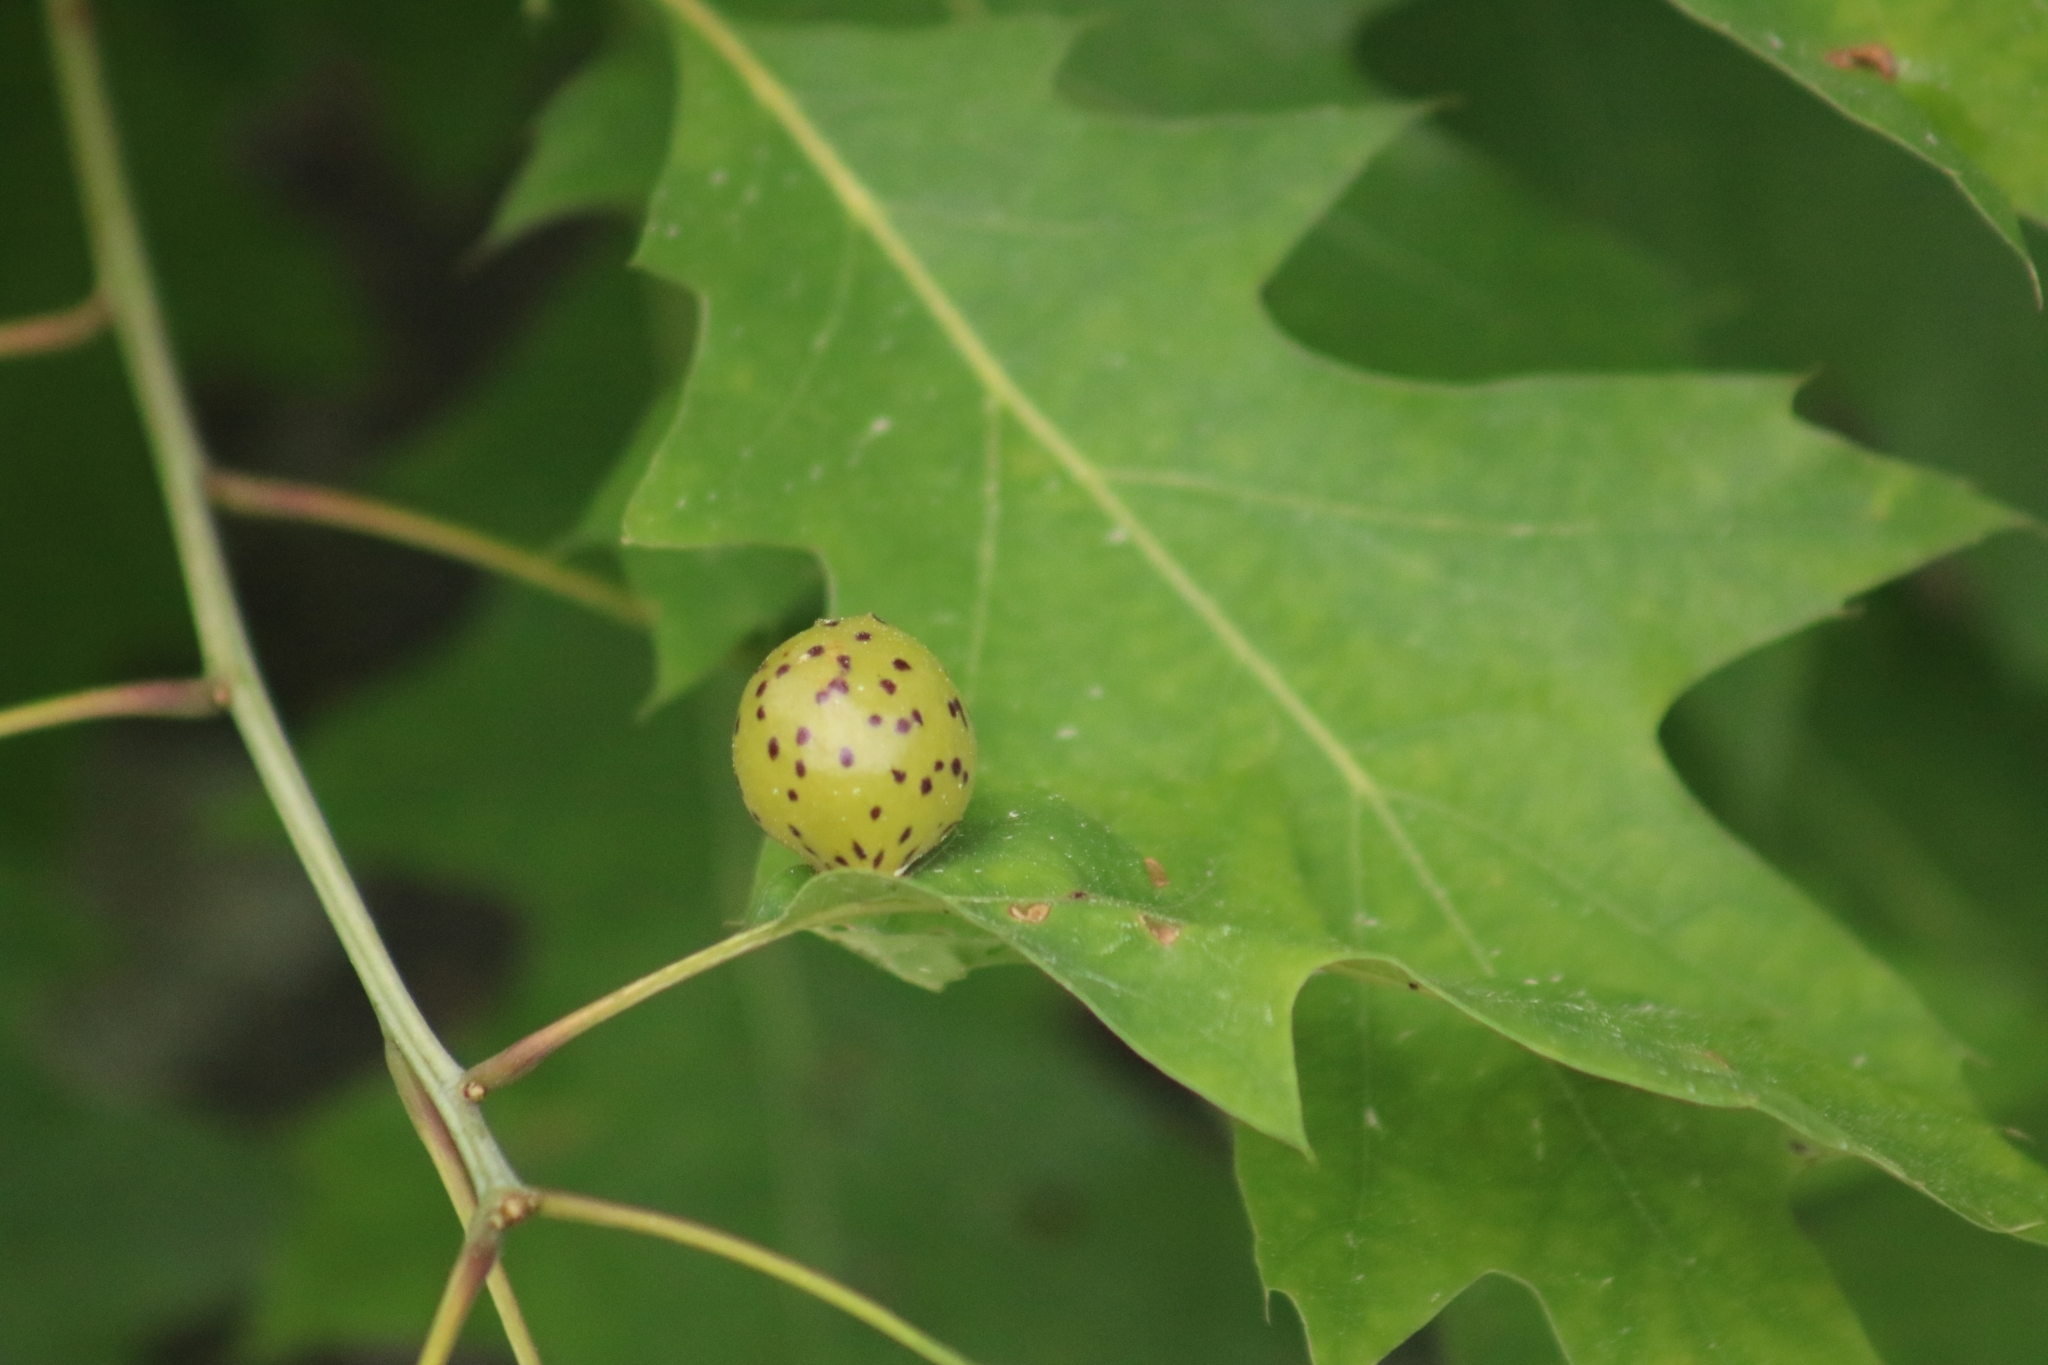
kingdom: Animalia
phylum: Arthropoda
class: Insecta
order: Hymenoptera
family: Cynipidae
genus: Amphibolips
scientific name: Amphibolips
